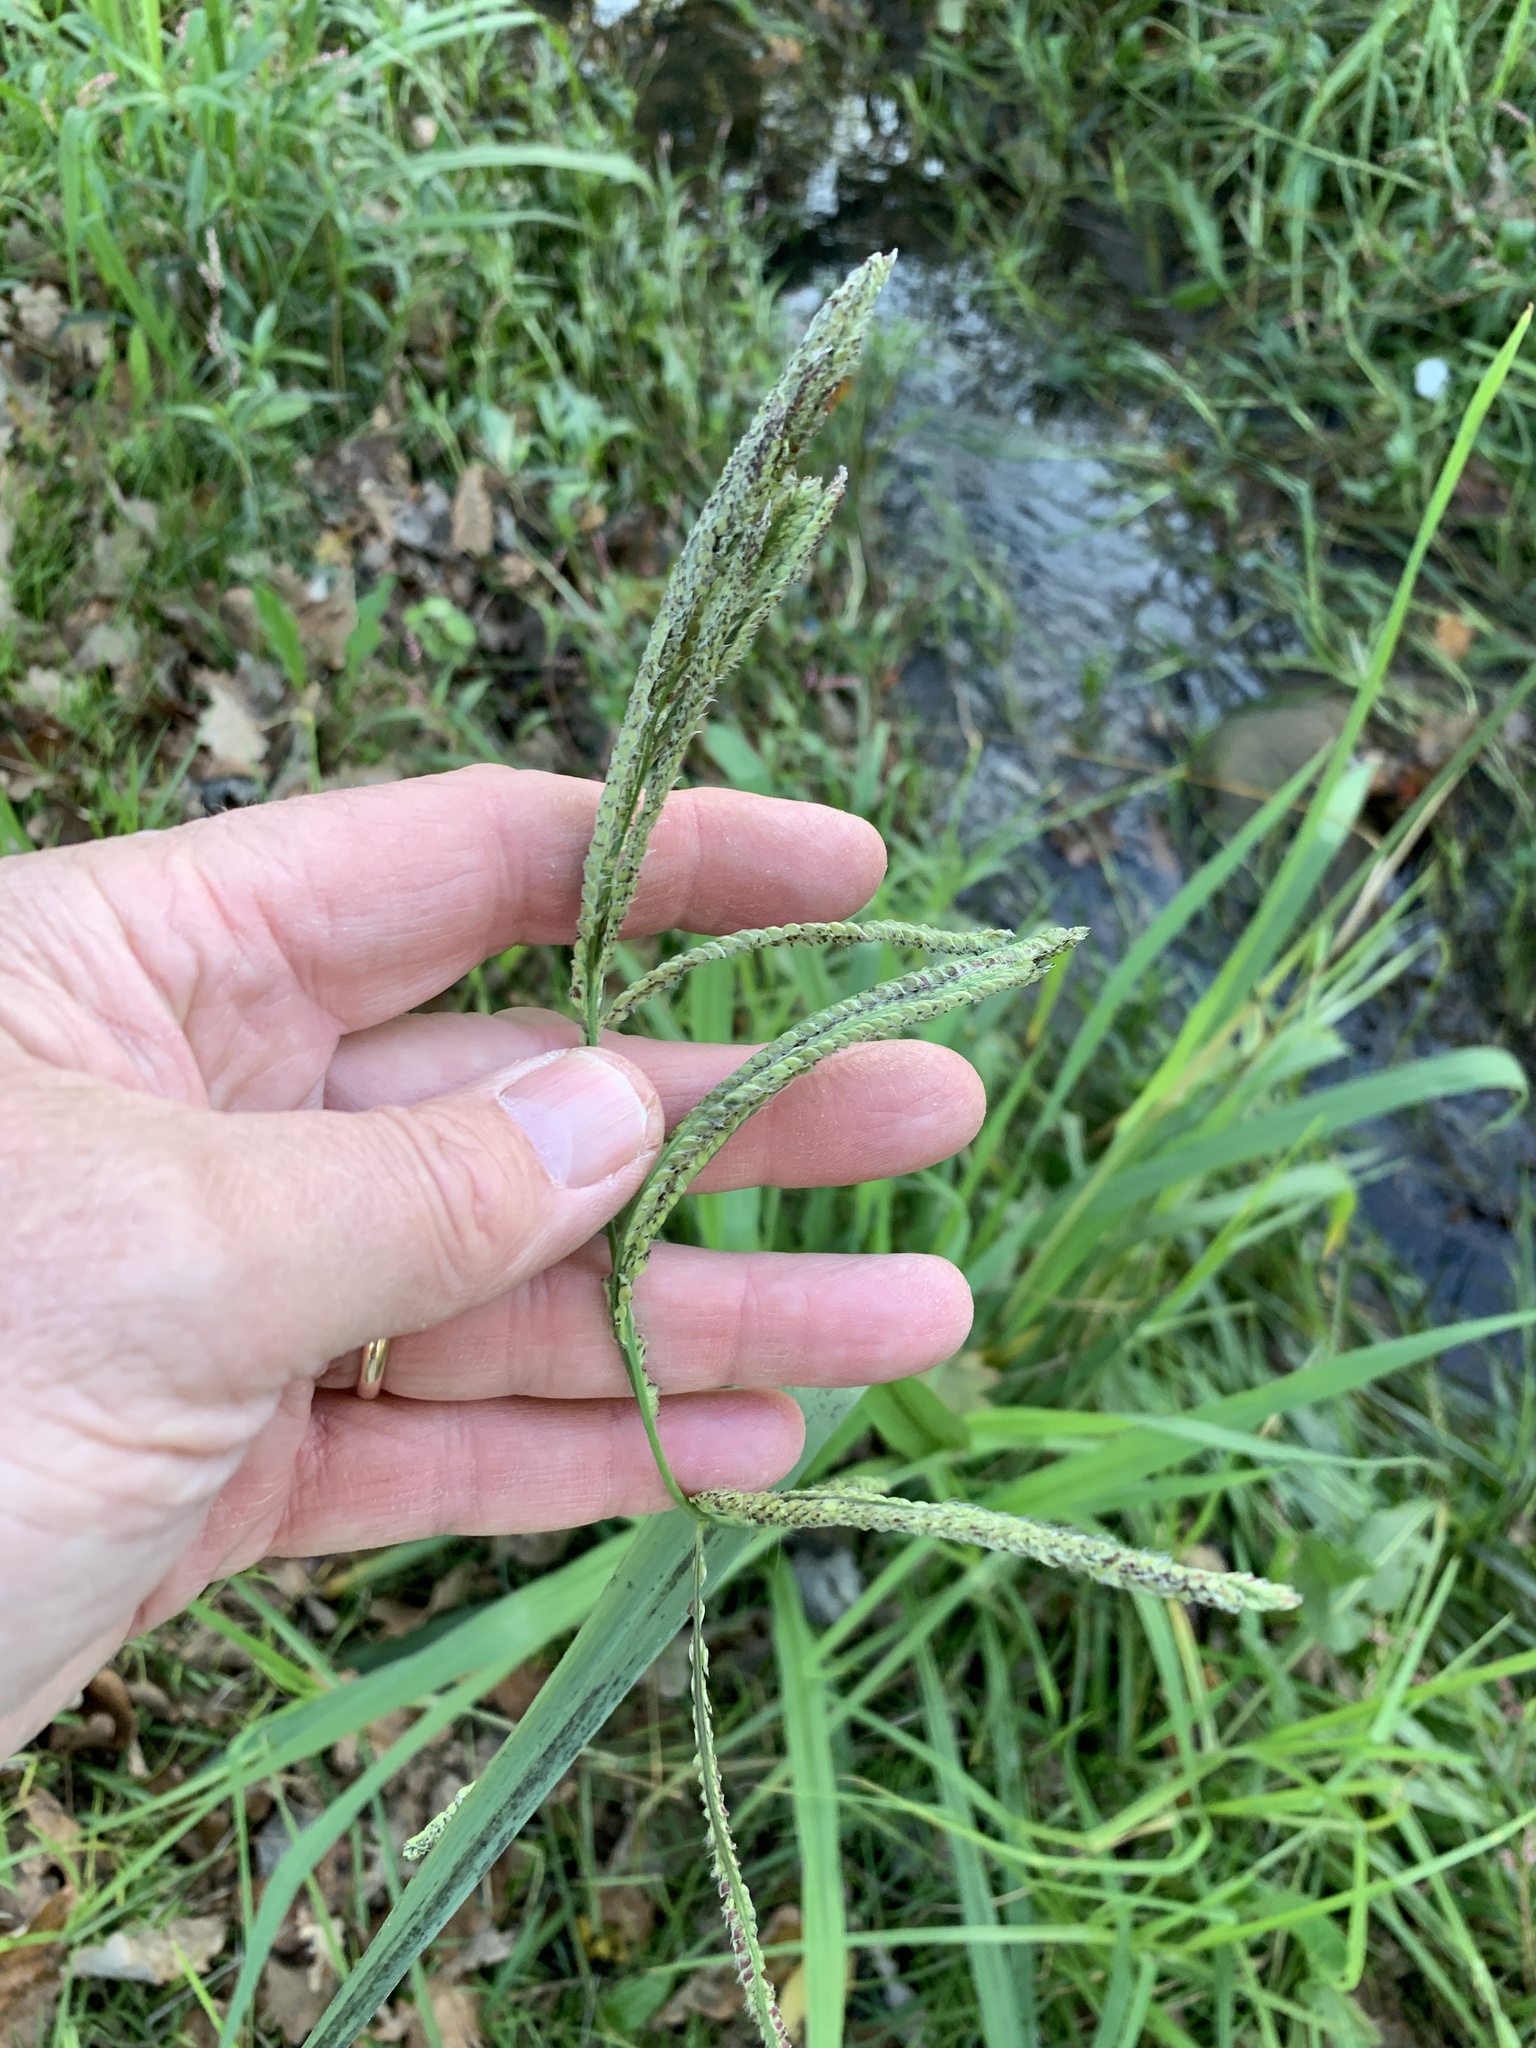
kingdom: Plantae
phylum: Tracheophyta
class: Liliopsida
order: Poales
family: Poaceae
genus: Paspalum
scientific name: Paspalum urvillei
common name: Vasey's grass
